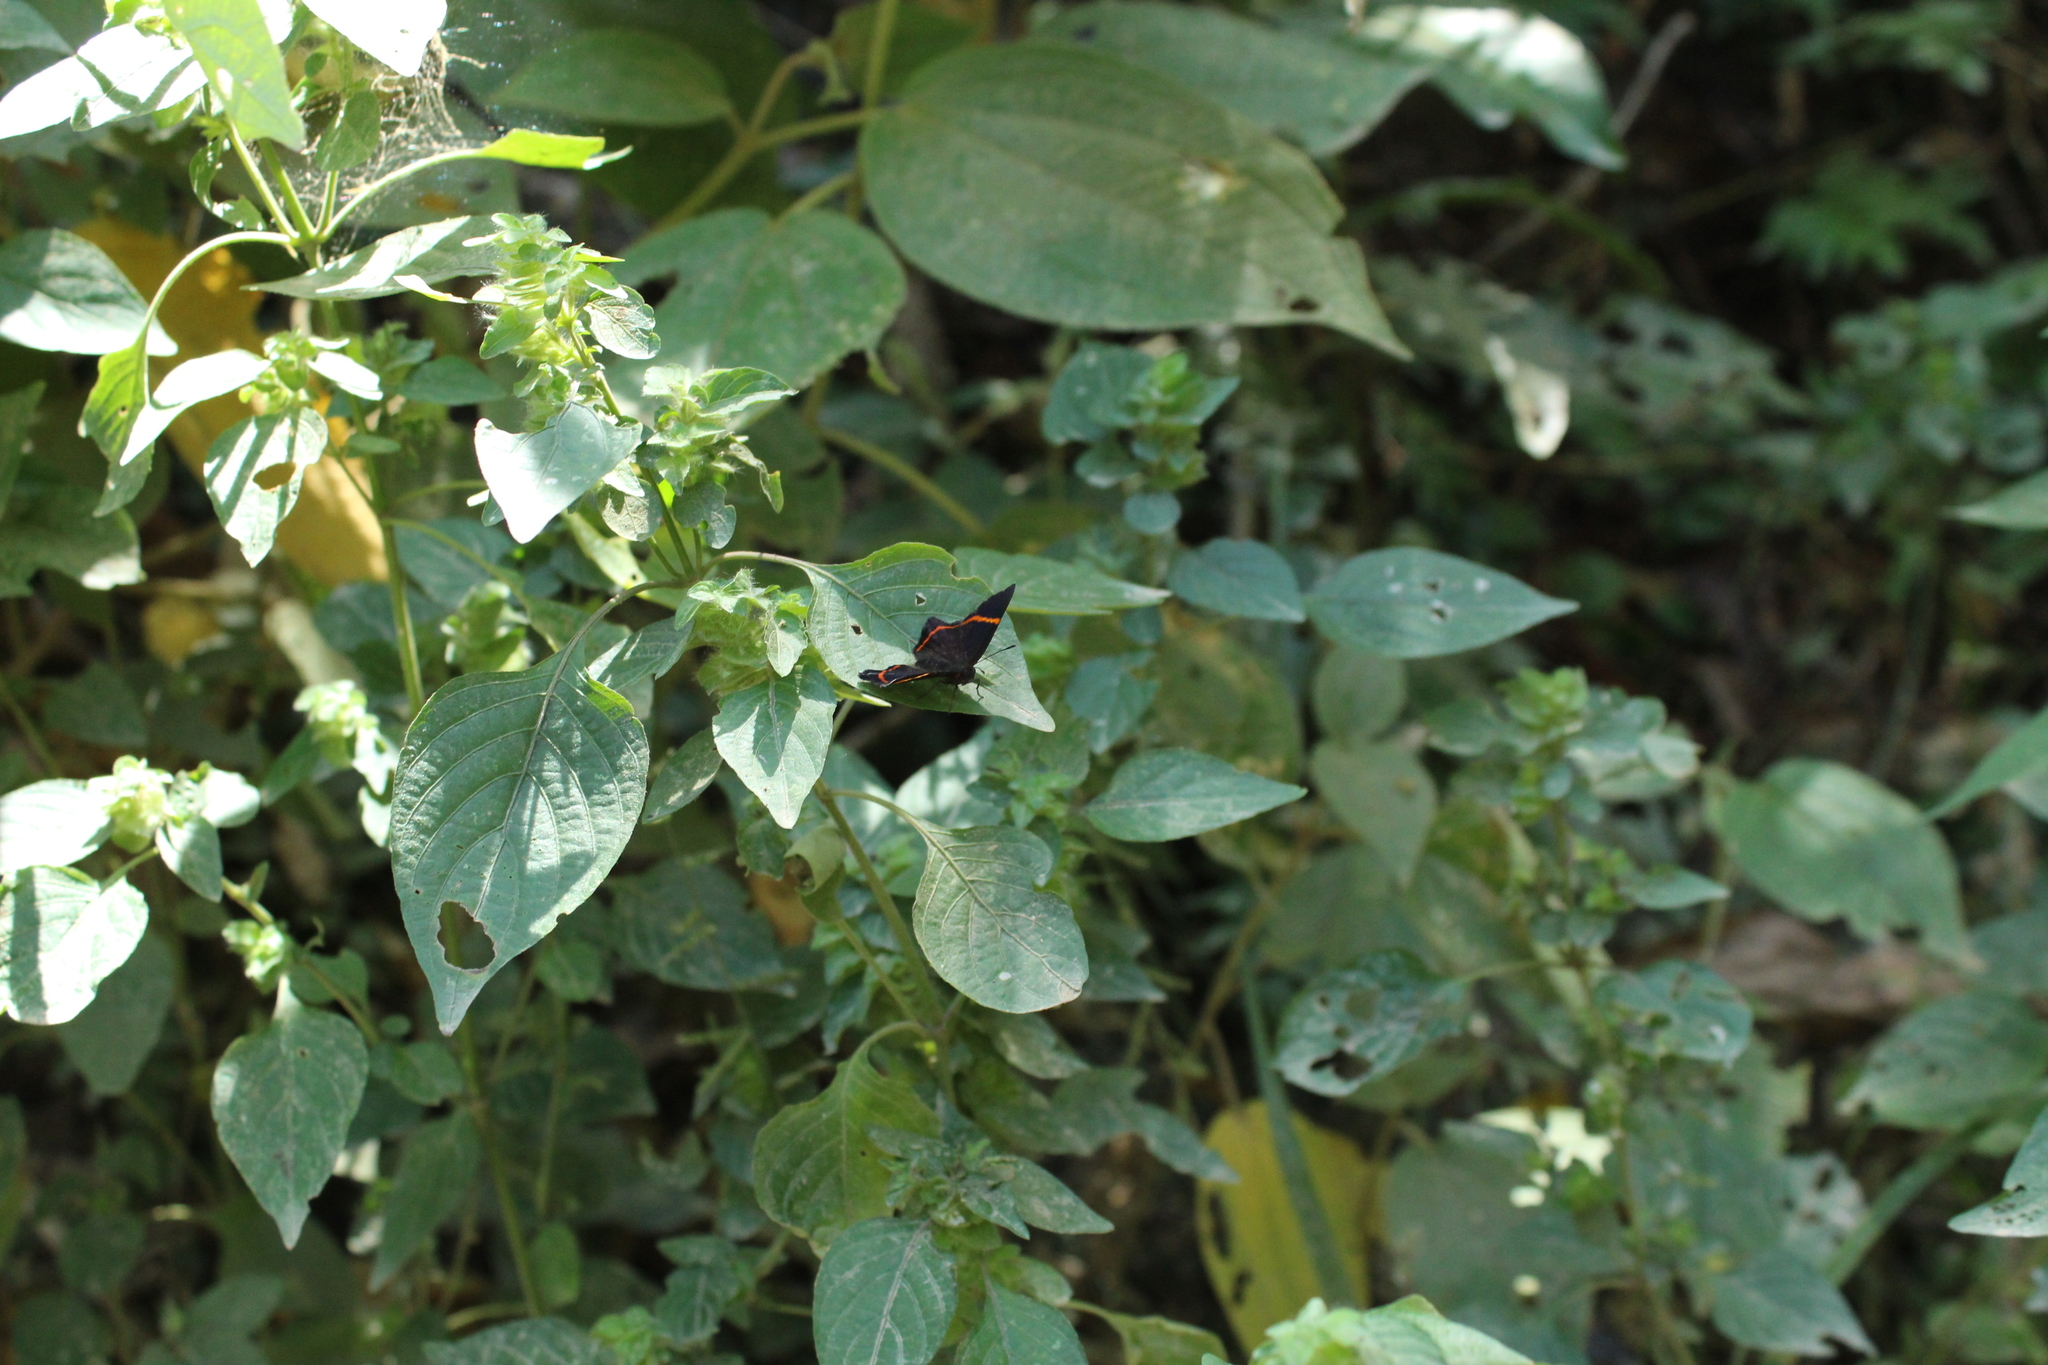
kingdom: Animalia
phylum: Arthropoda
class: Insecta
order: Lepidoptera
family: Riodinidae
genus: Riodina
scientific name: Riodina lysippus
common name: Lysippus metalmark
